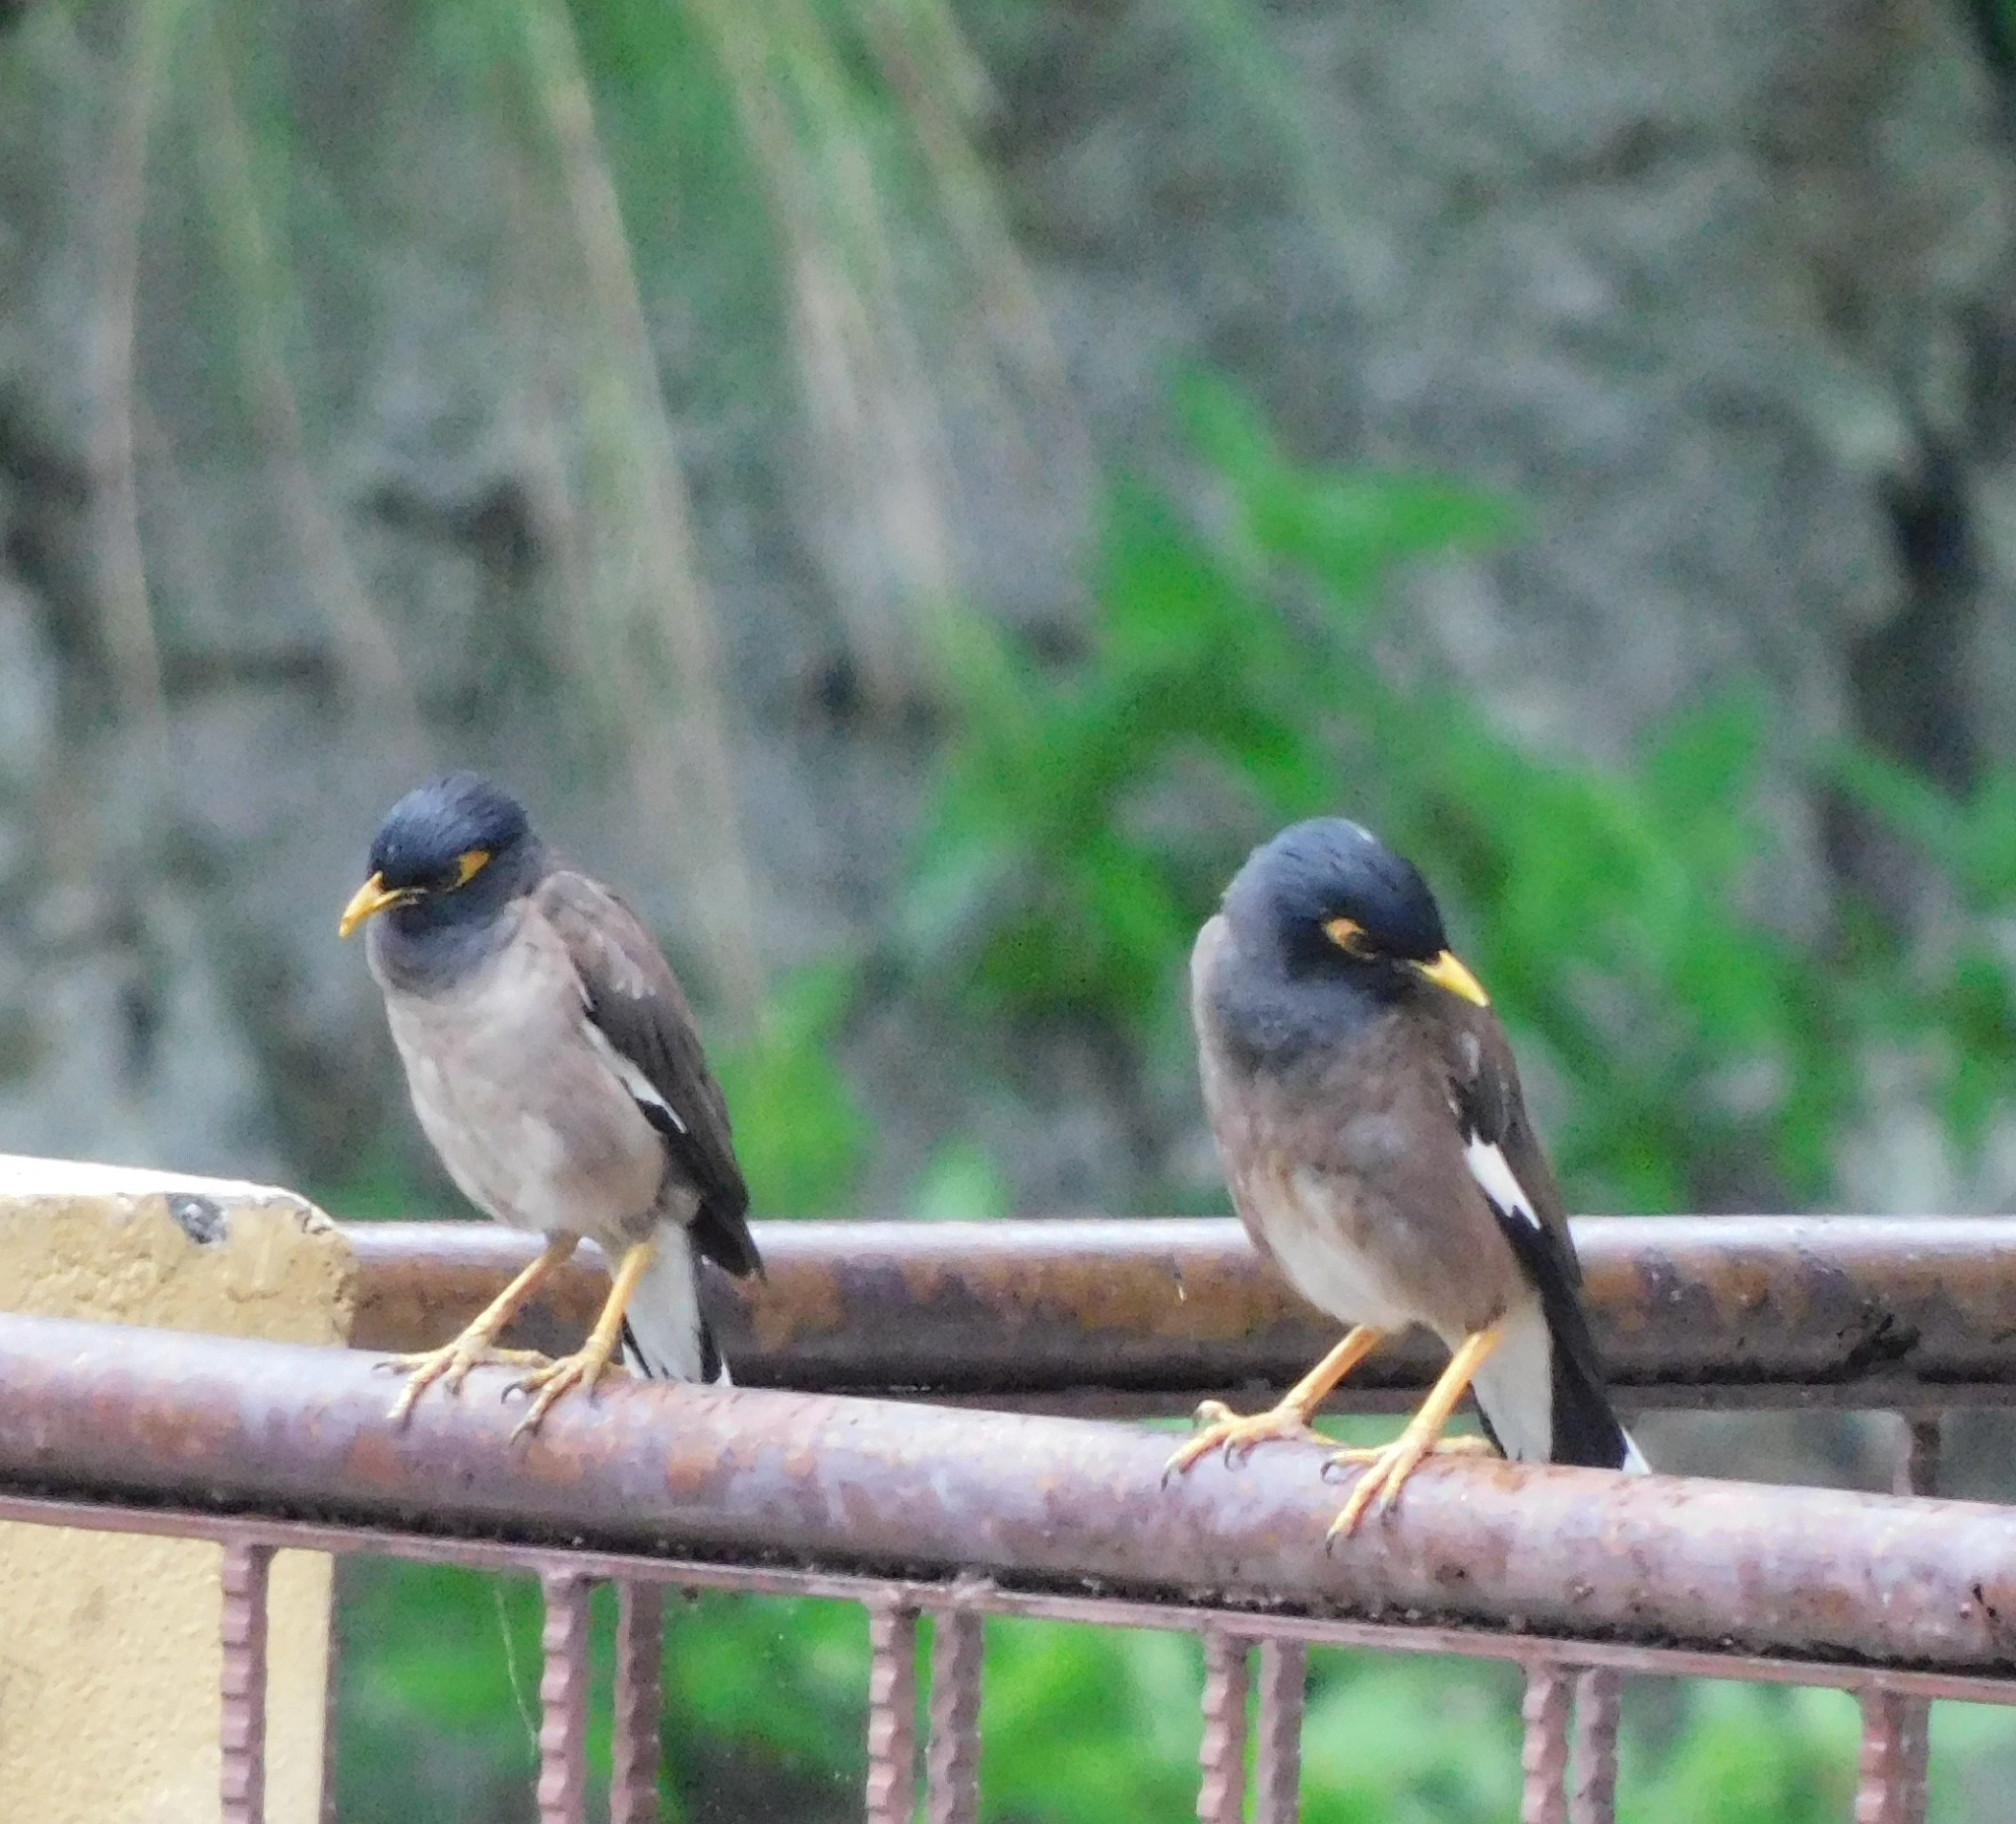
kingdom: Animalia
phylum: Chordata
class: Aves
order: Passeriformes
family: Sturnidae
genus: Acridotheres
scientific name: Acridotheres tristis
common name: Common myna
